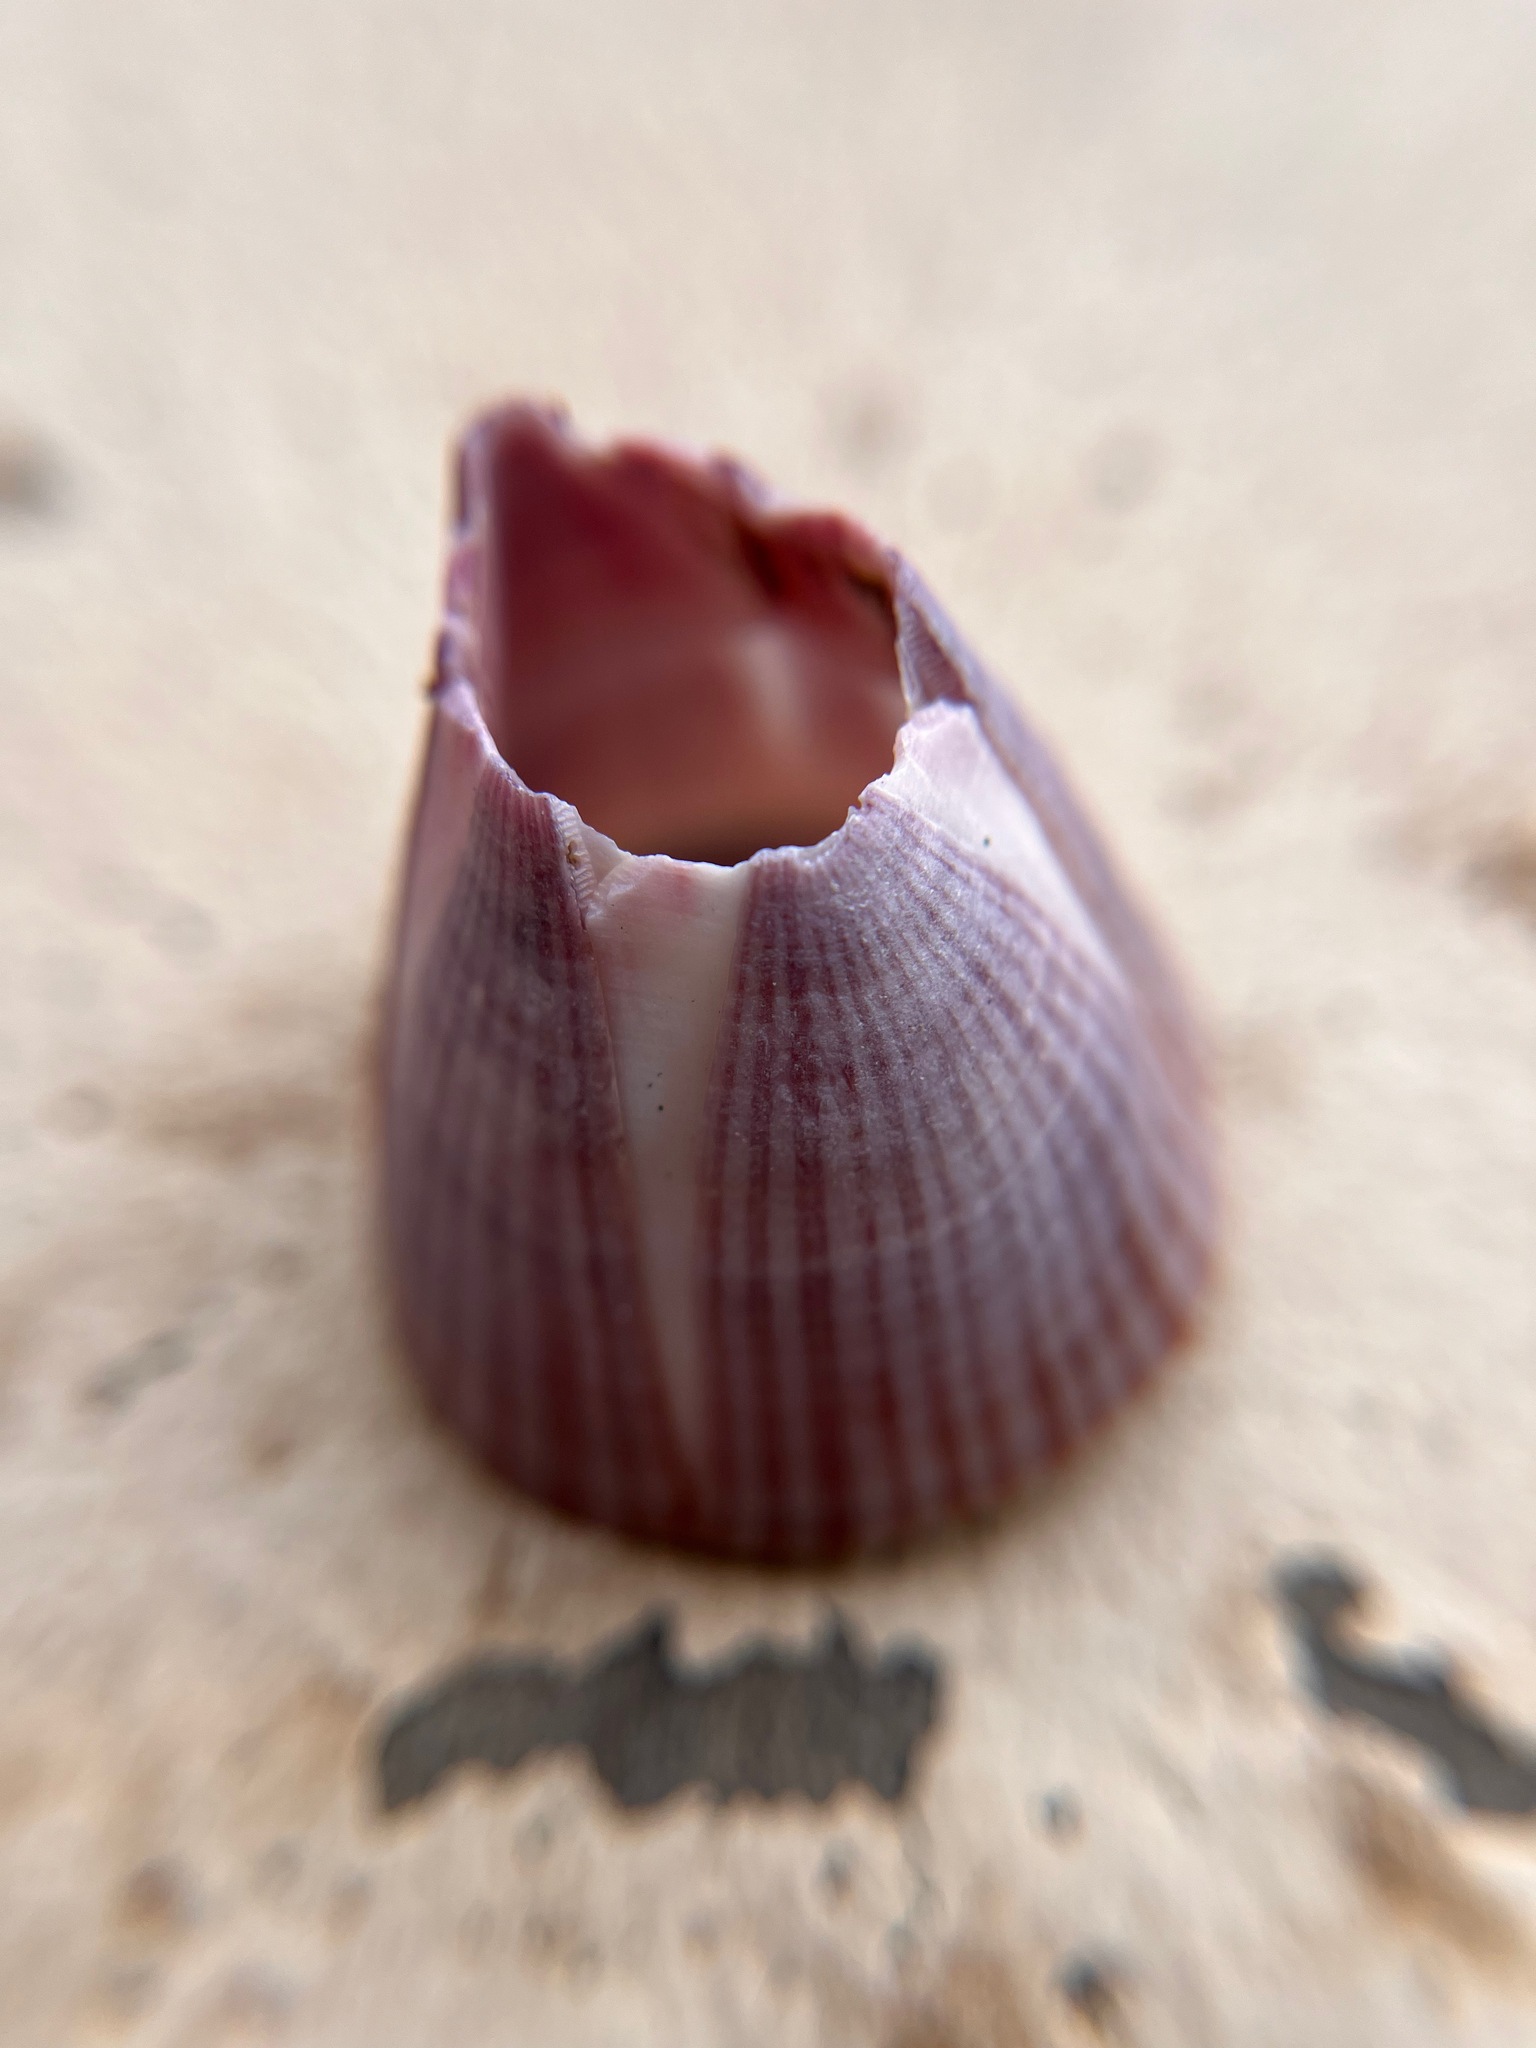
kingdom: Animalia
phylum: Arthropoda
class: Maxillopoda
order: Sessilia
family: Balanidae
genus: Paraconcavus
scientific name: Paraconcavus pacificus
